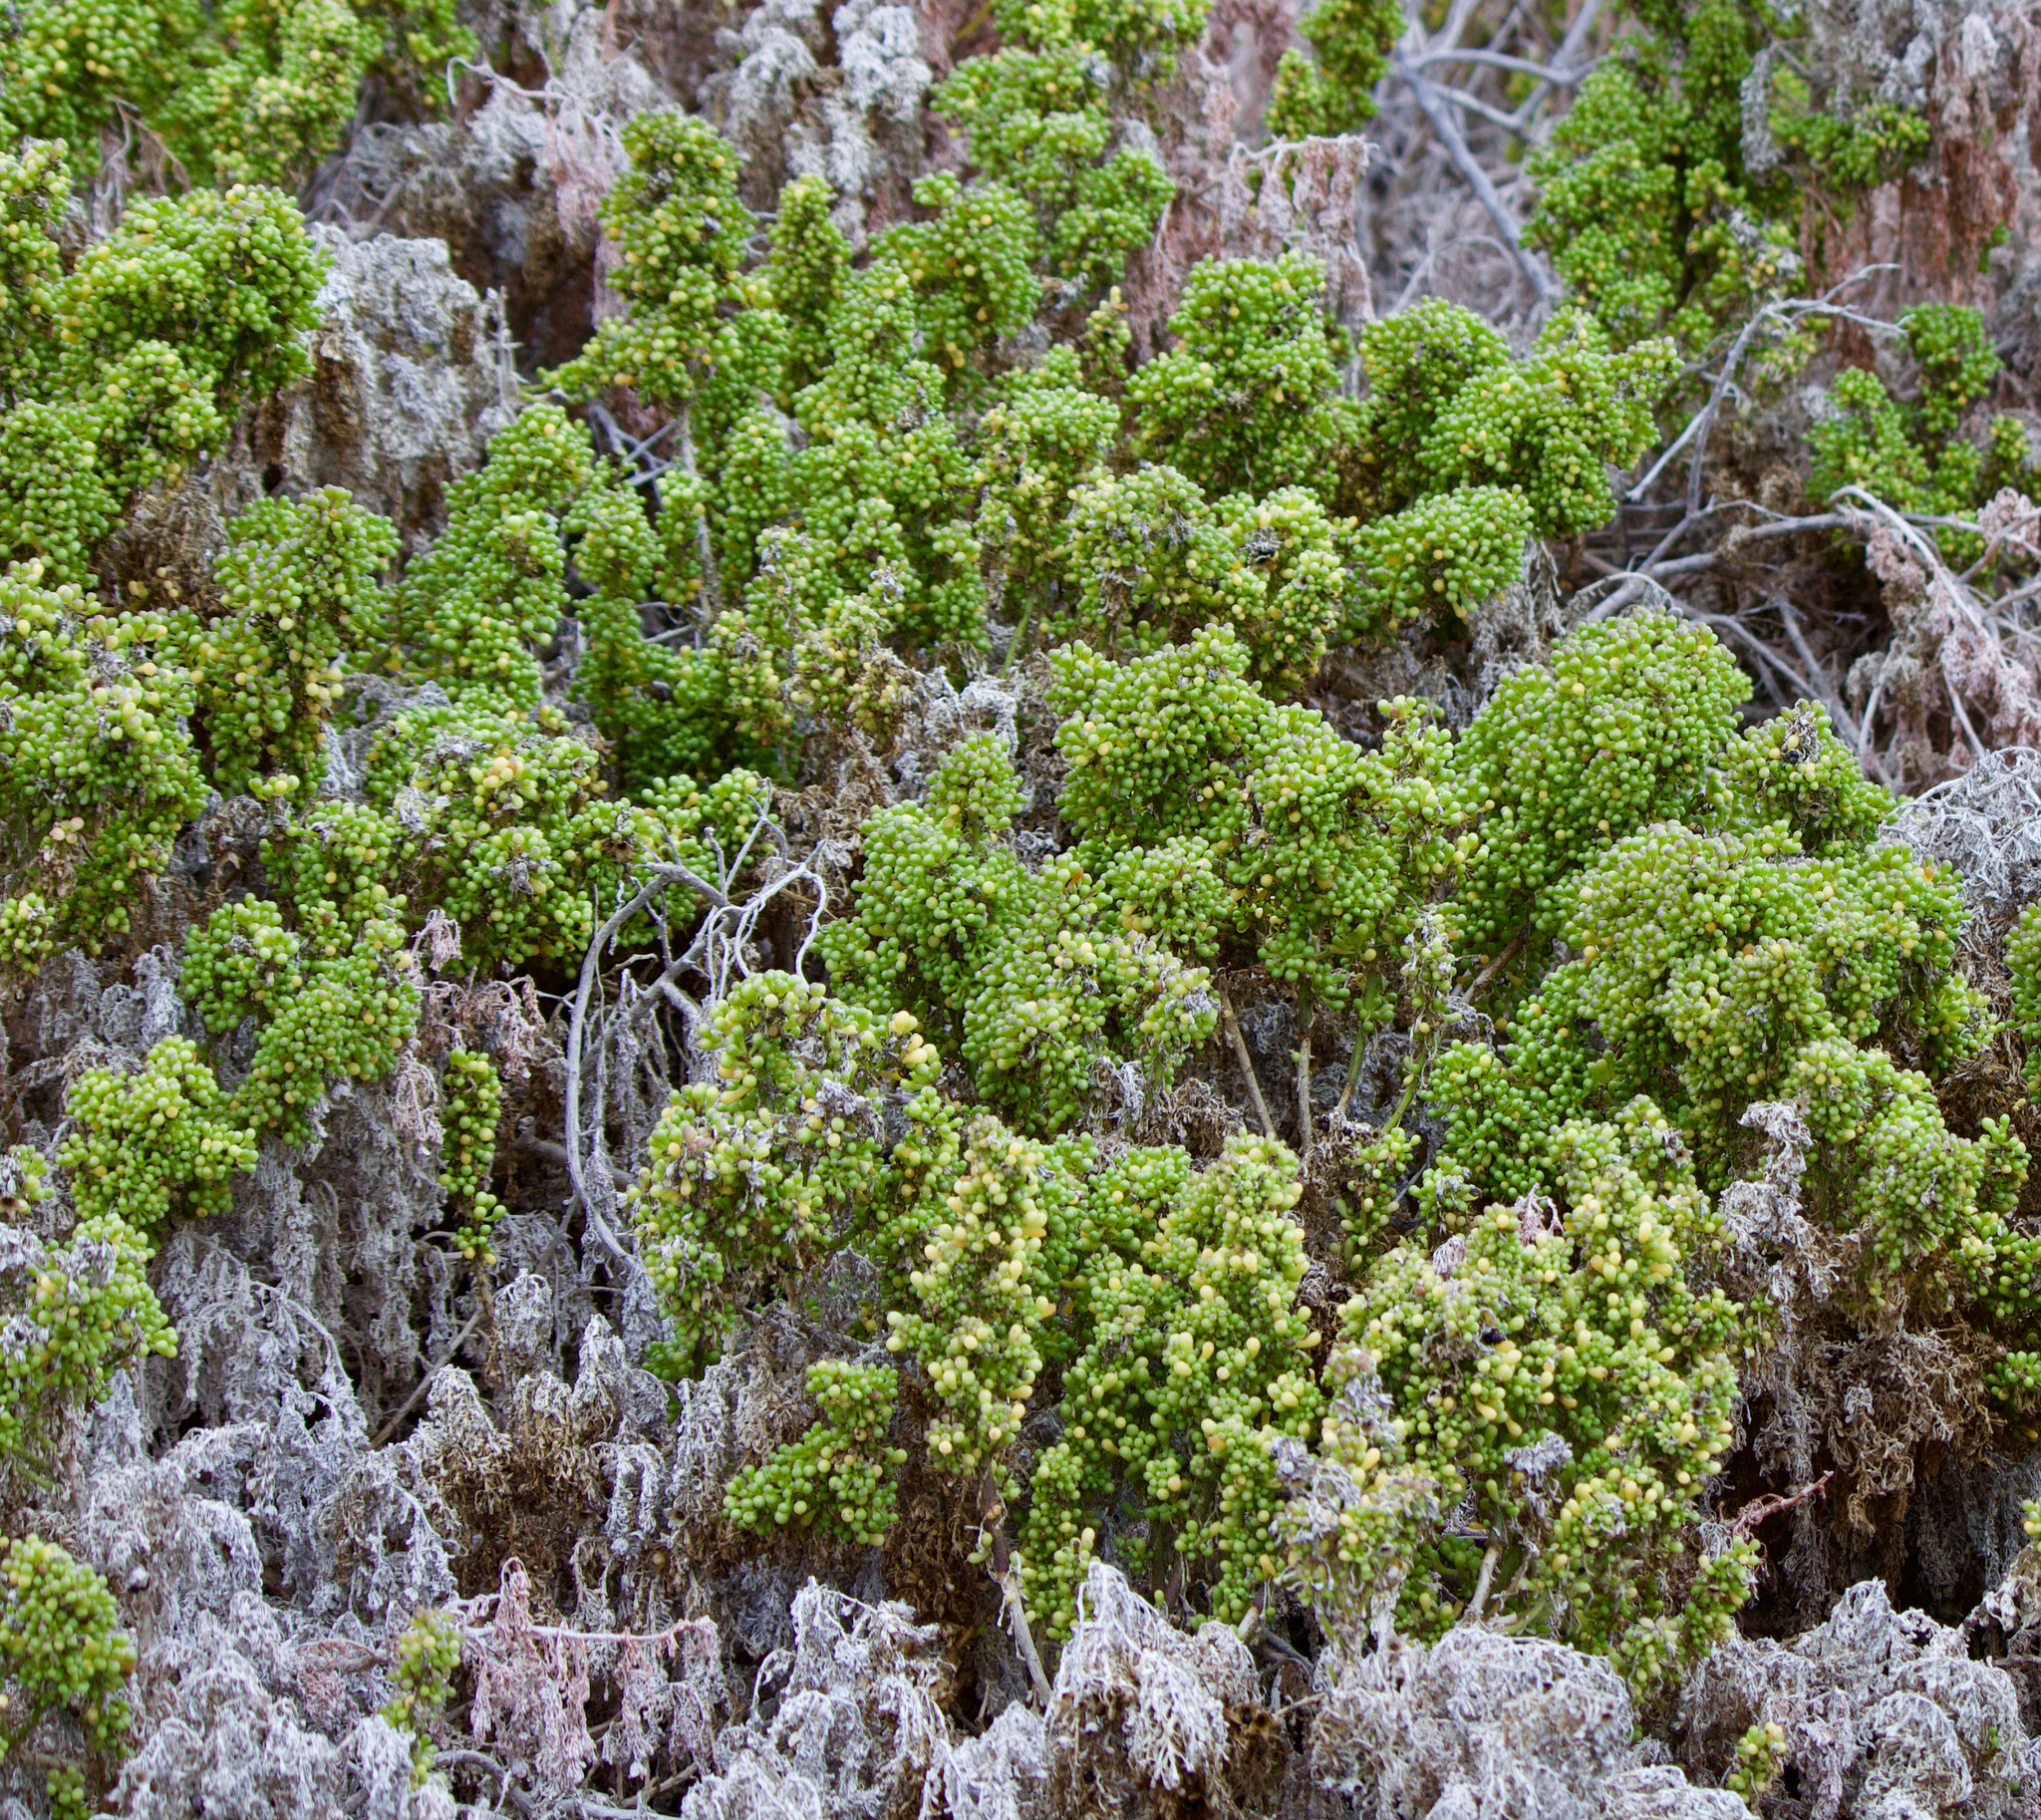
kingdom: Plantae
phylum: Tracheophyta
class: Magnoliopsida
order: Solanales
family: Solanaceae
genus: Nolana
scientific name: Nolana divaricata
